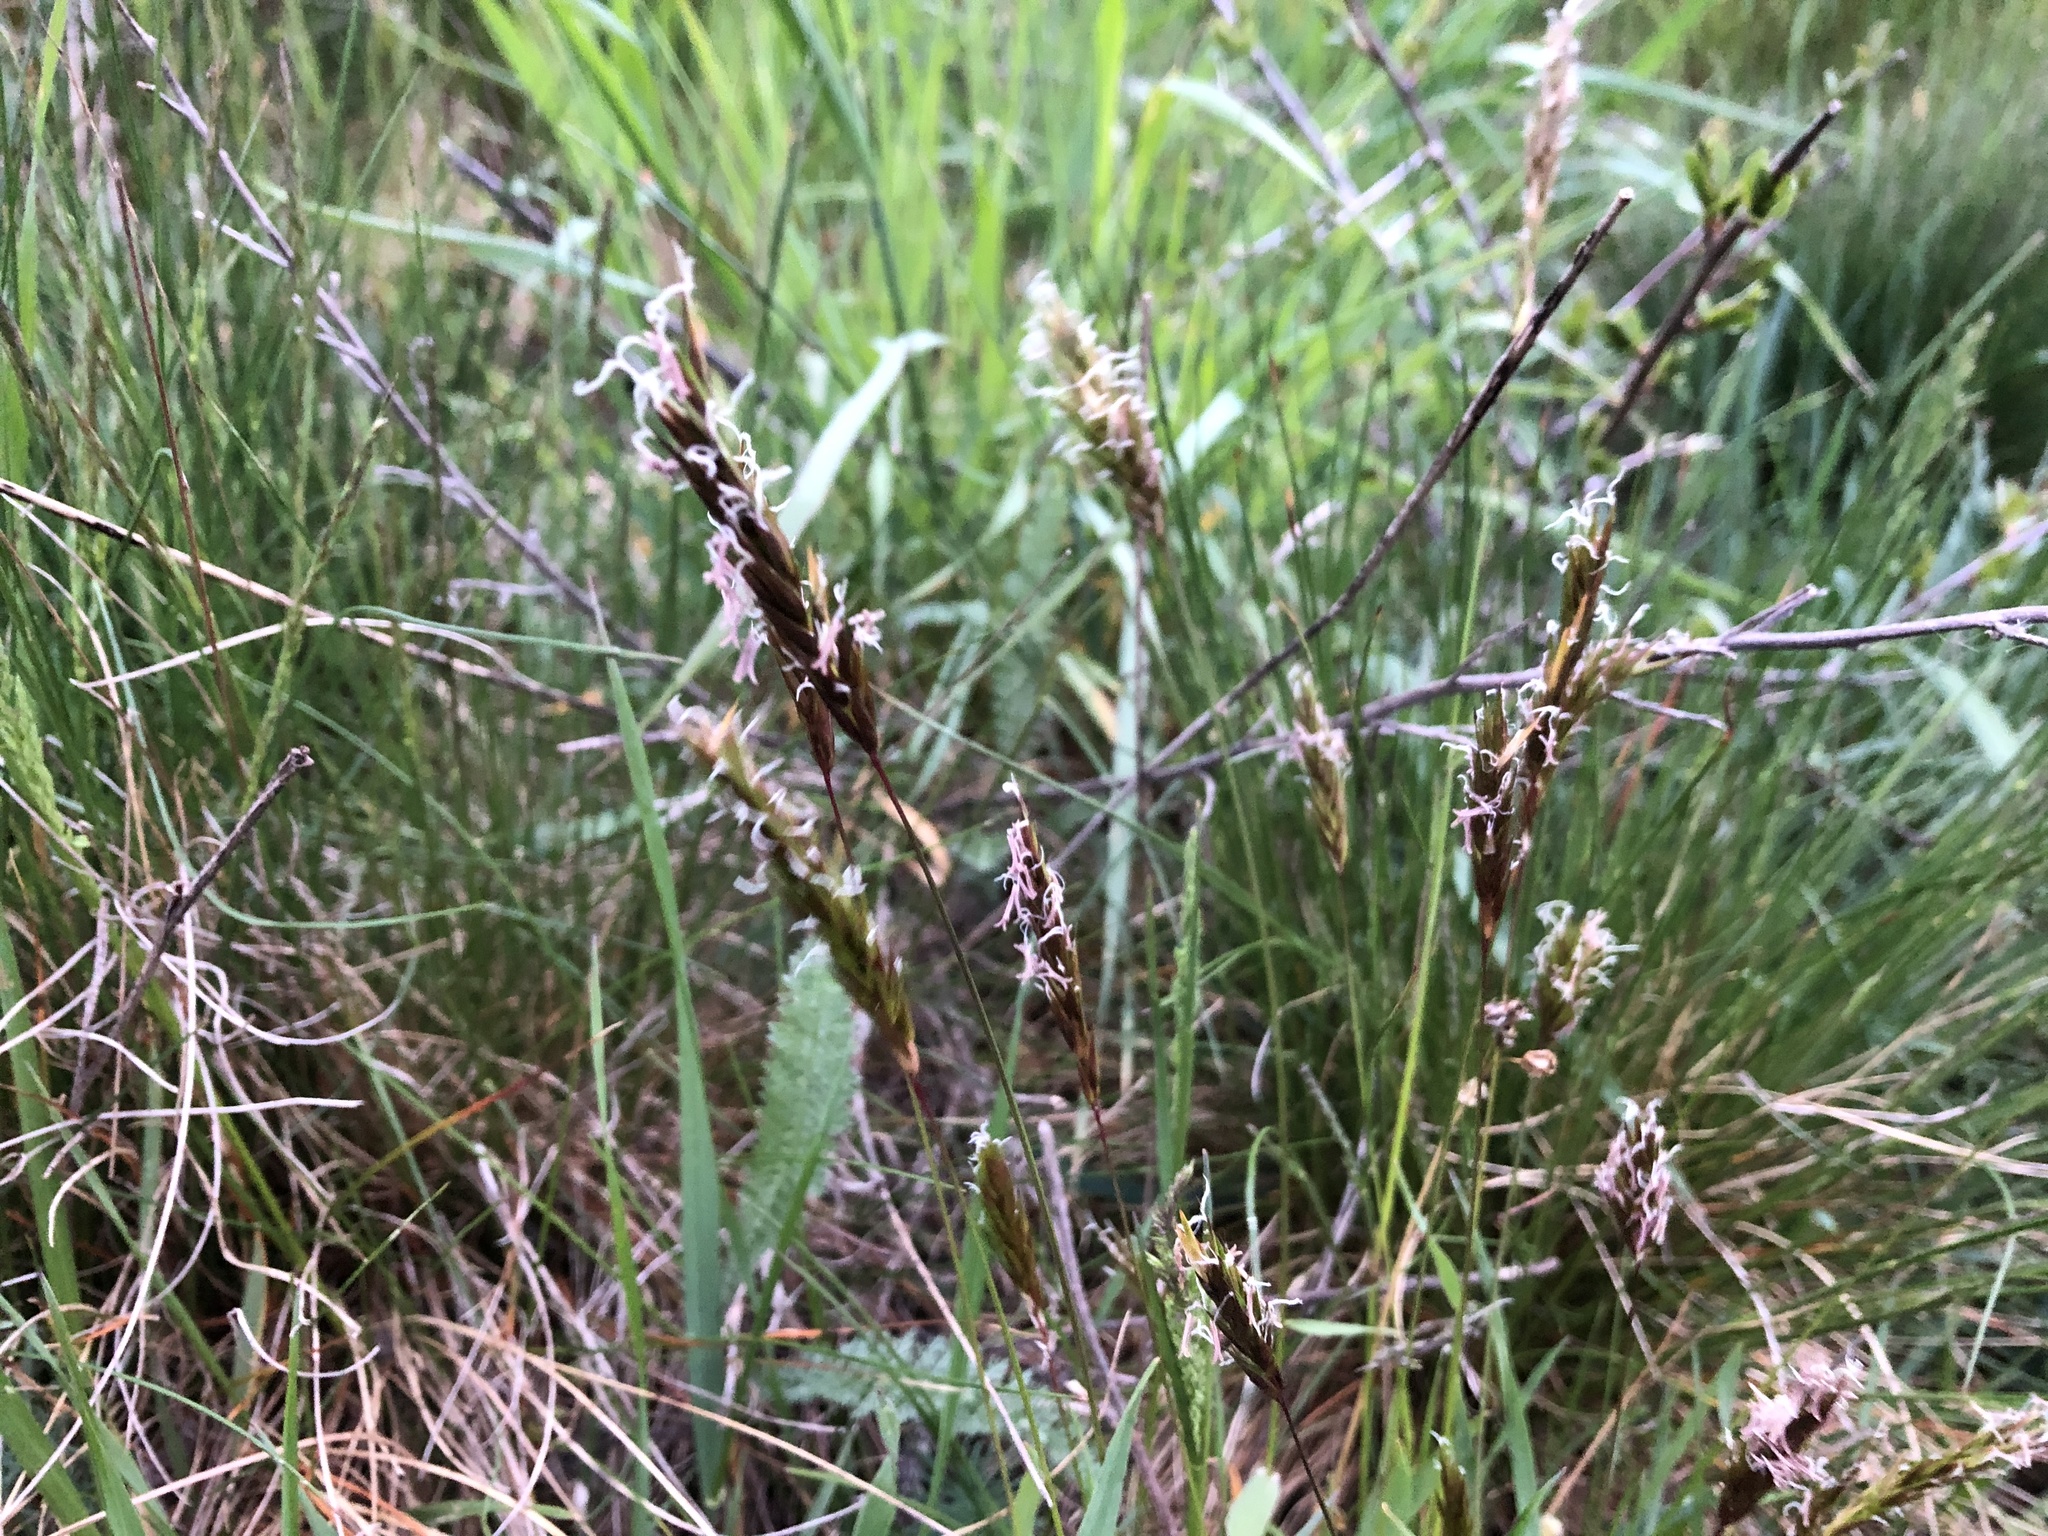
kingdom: Plantae
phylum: Tracheophyta
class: Liliopsida
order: Poales
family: Poaceae
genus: Anthoxanthum
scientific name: Anthoxanthum odoratum
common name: Sweet vernalgrass
